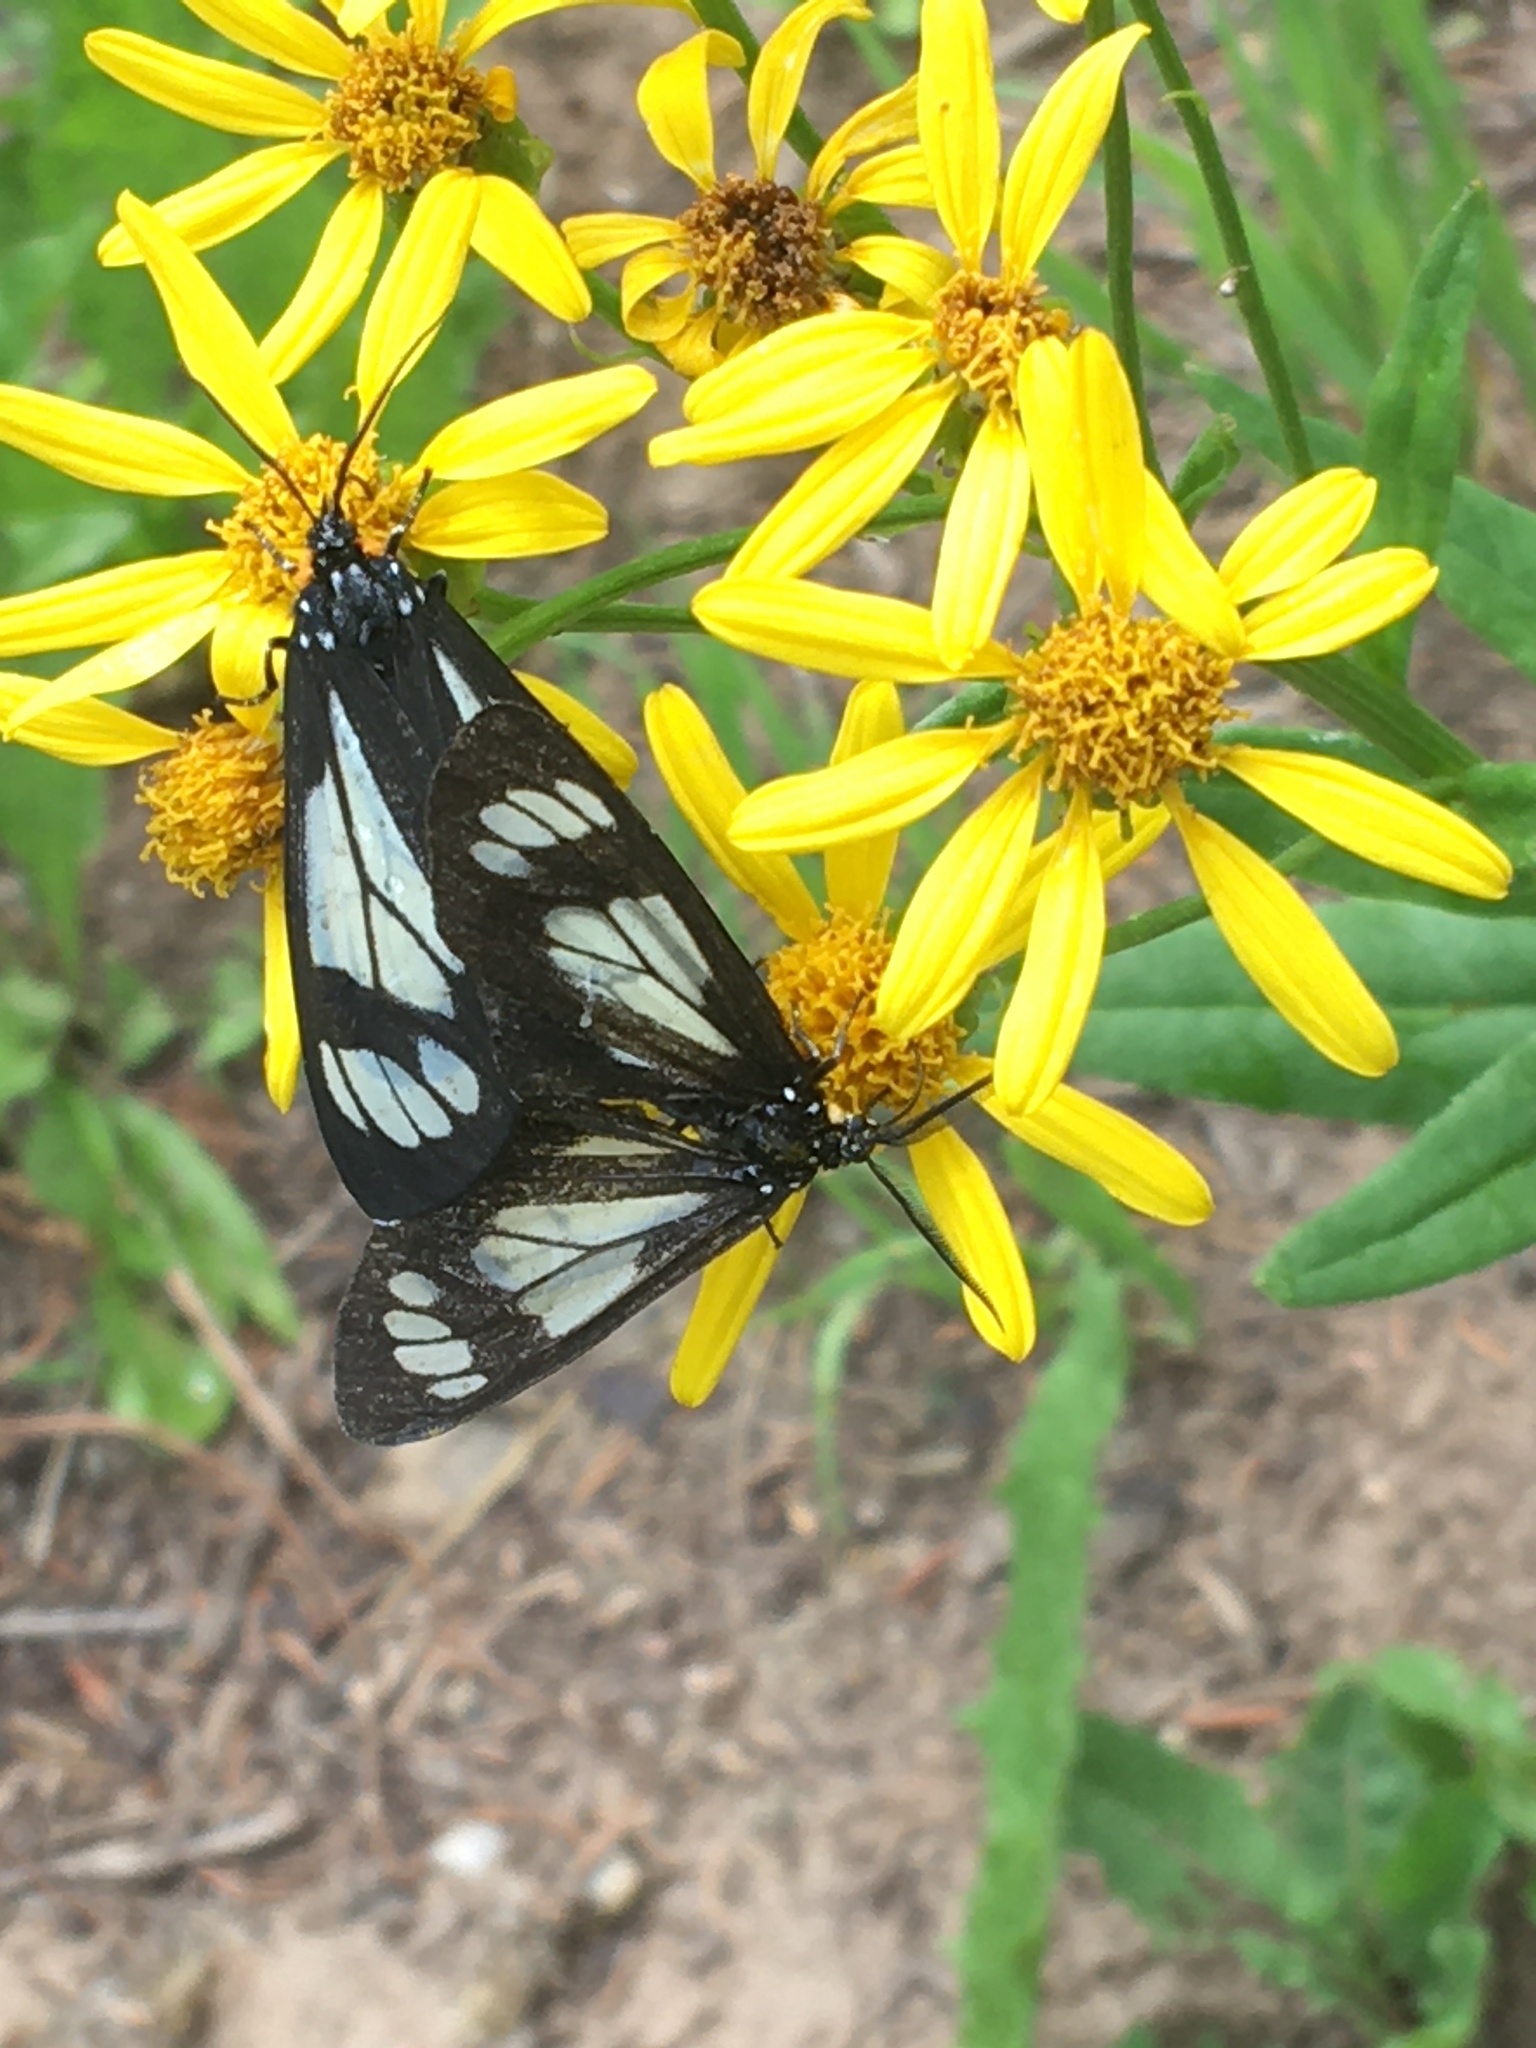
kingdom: Animalia
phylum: Arthropoda
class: Insecta
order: Lepidoptera
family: Erebidae
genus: Gnophaela
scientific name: Gnophaela vermiculata
